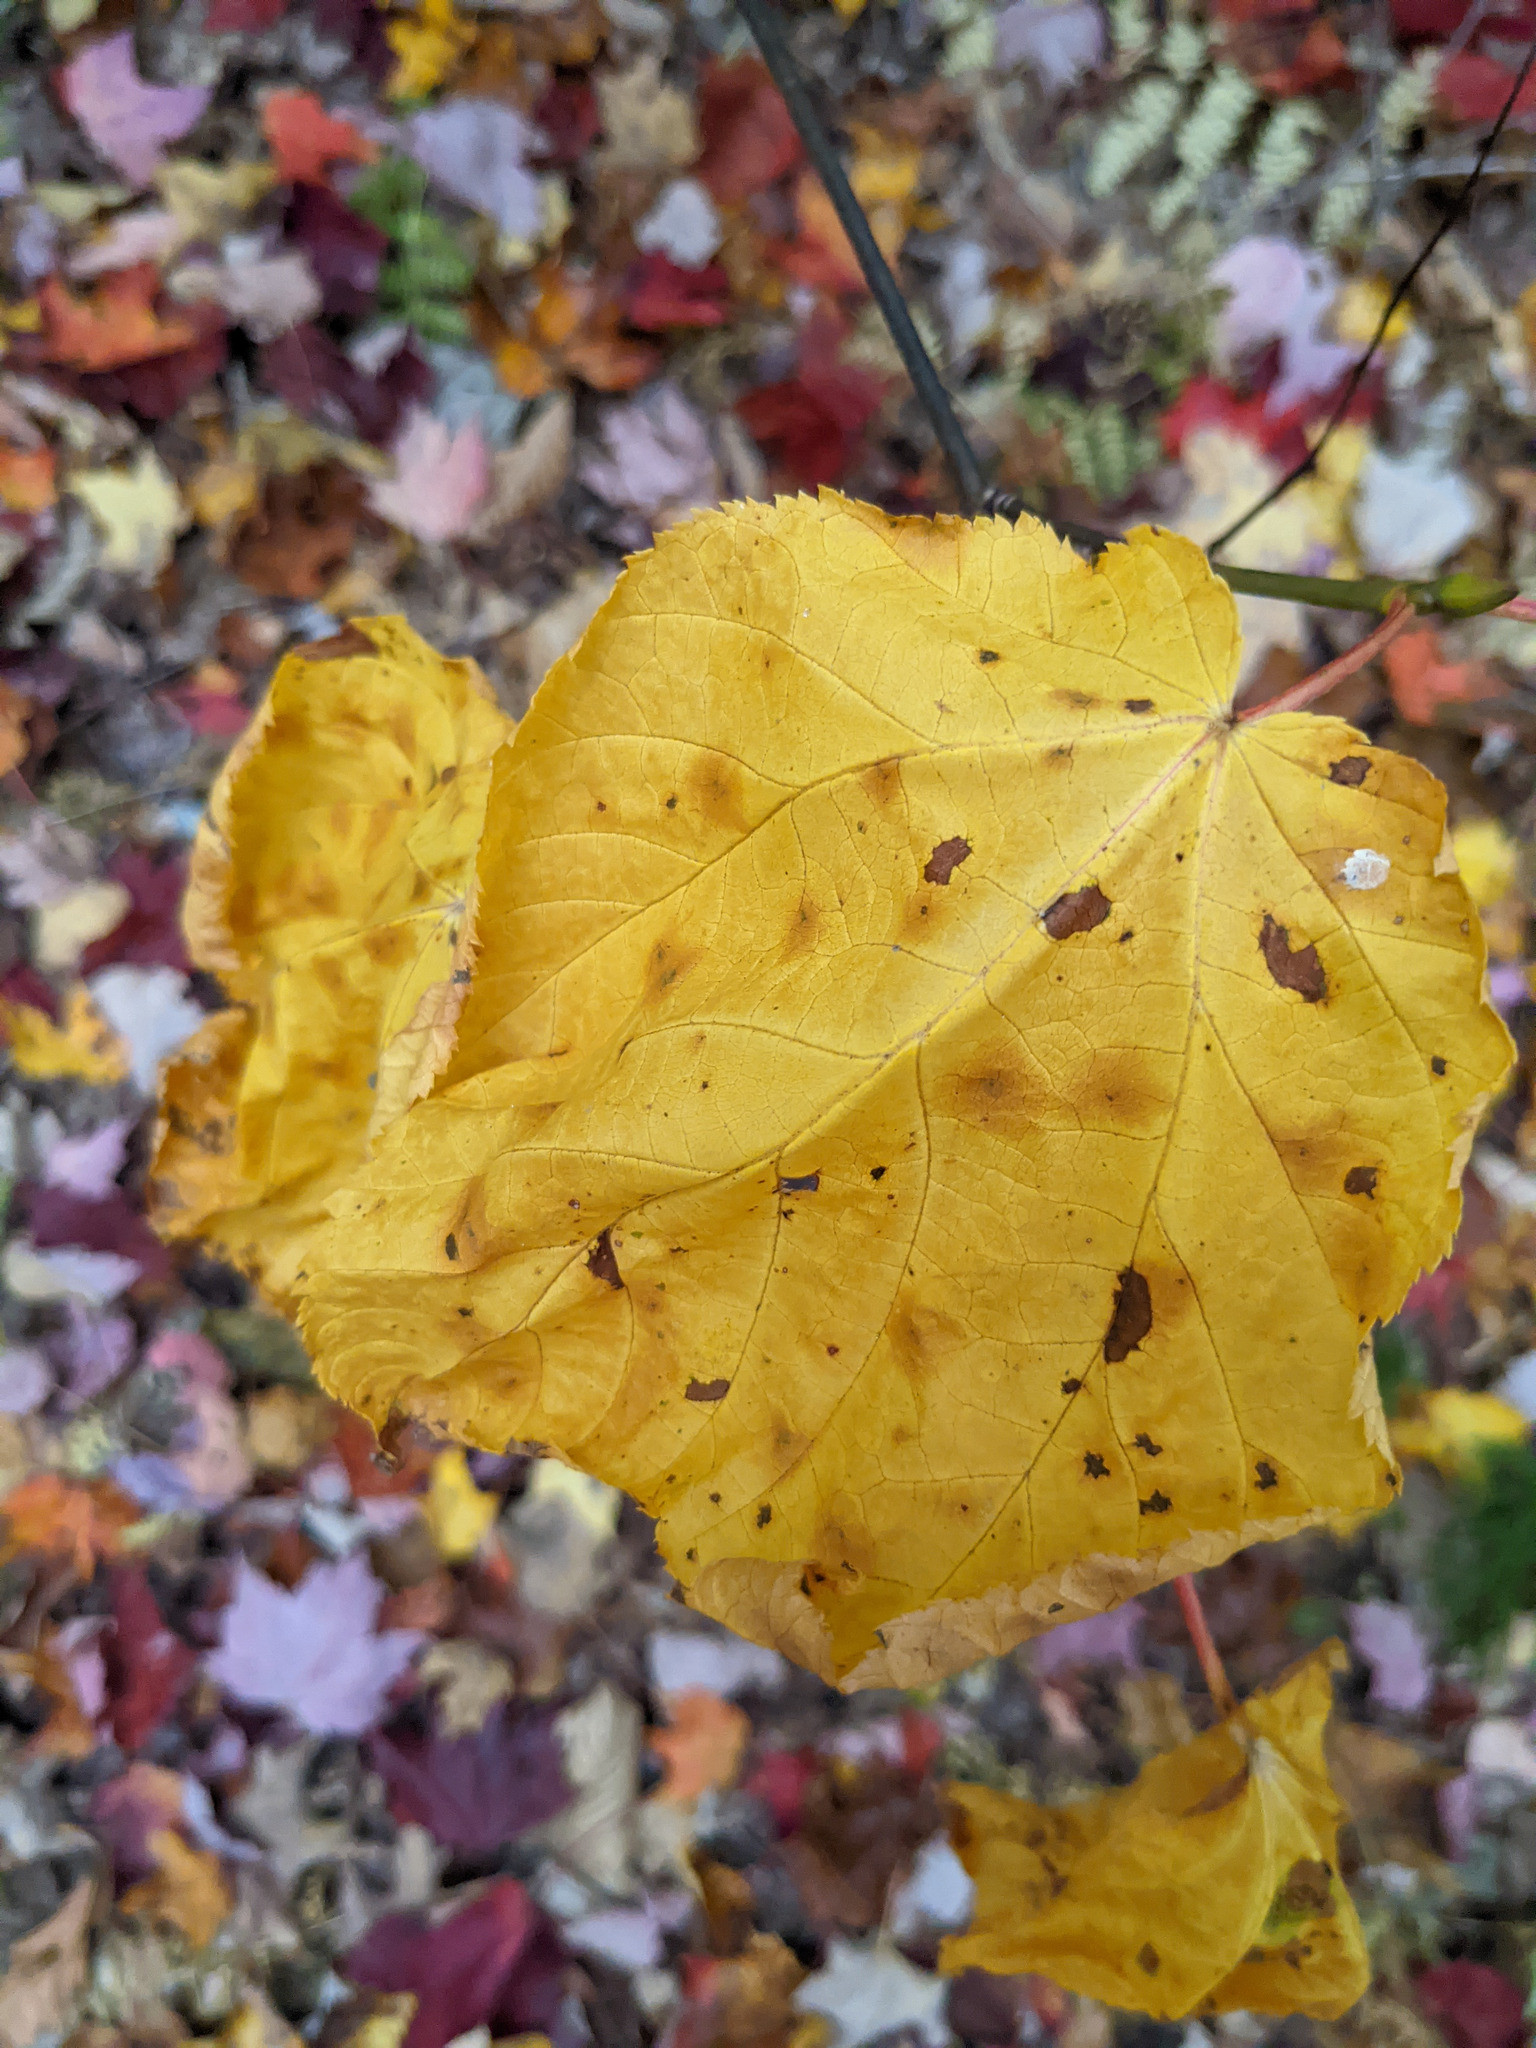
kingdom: Plantae
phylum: Tracheophyta
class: Magnoliopsida
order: Sapindales
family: Sapindaceae
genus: Acer
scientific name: Acer pensylvanicum
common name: Moosewood
